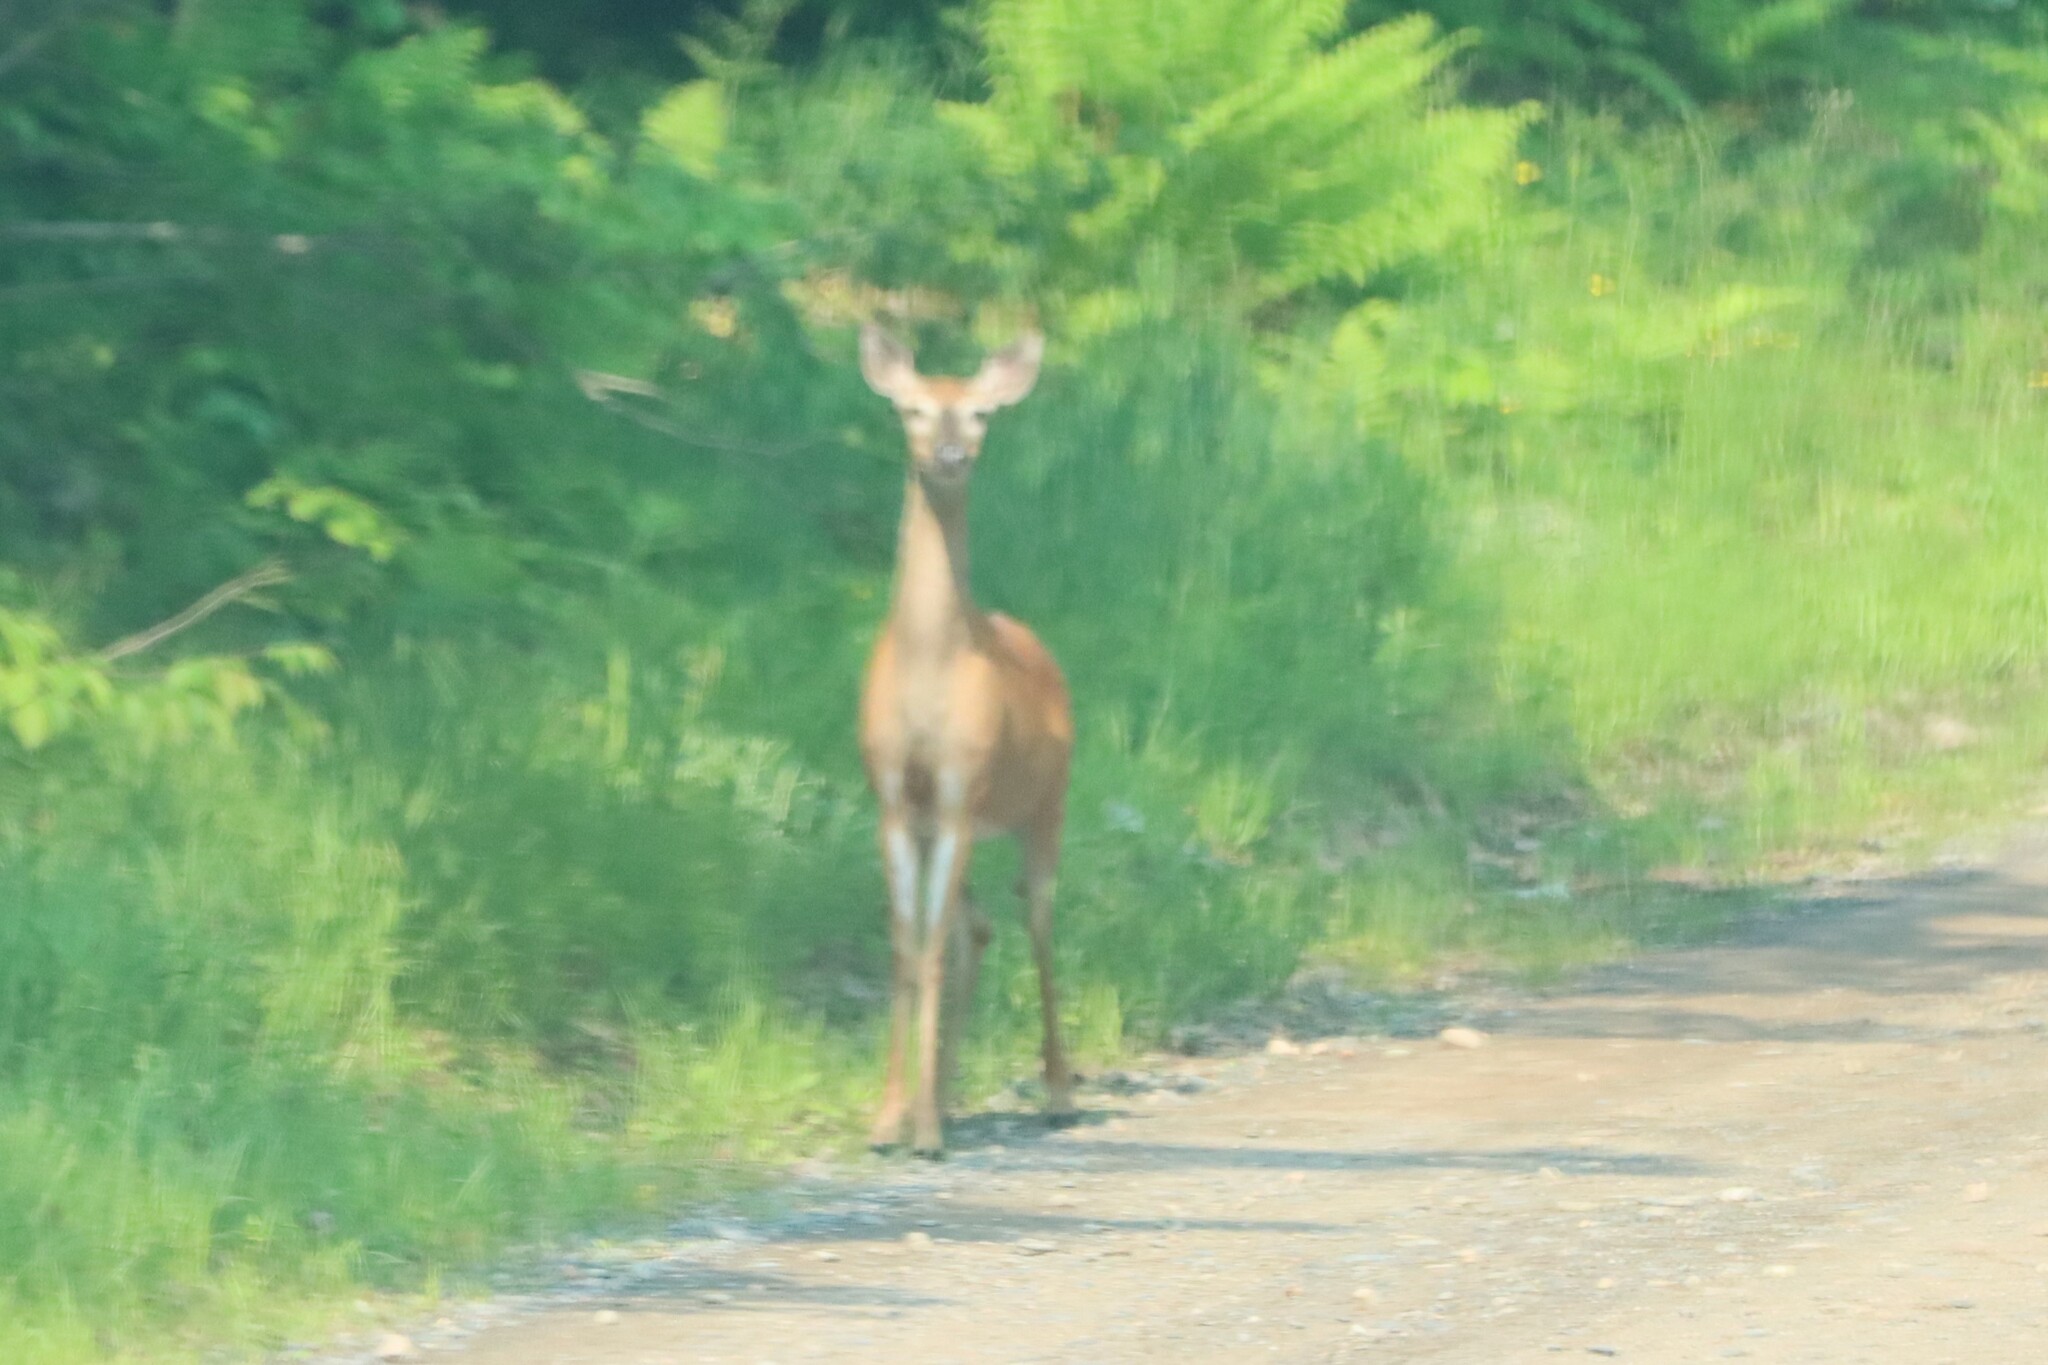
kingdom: Animalia
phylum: Chordata
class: Mammalia
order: Artiodactyla
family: Cervidae
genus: Odocoileus
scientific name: Odocoileus virginianus
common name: White-tailed deer
